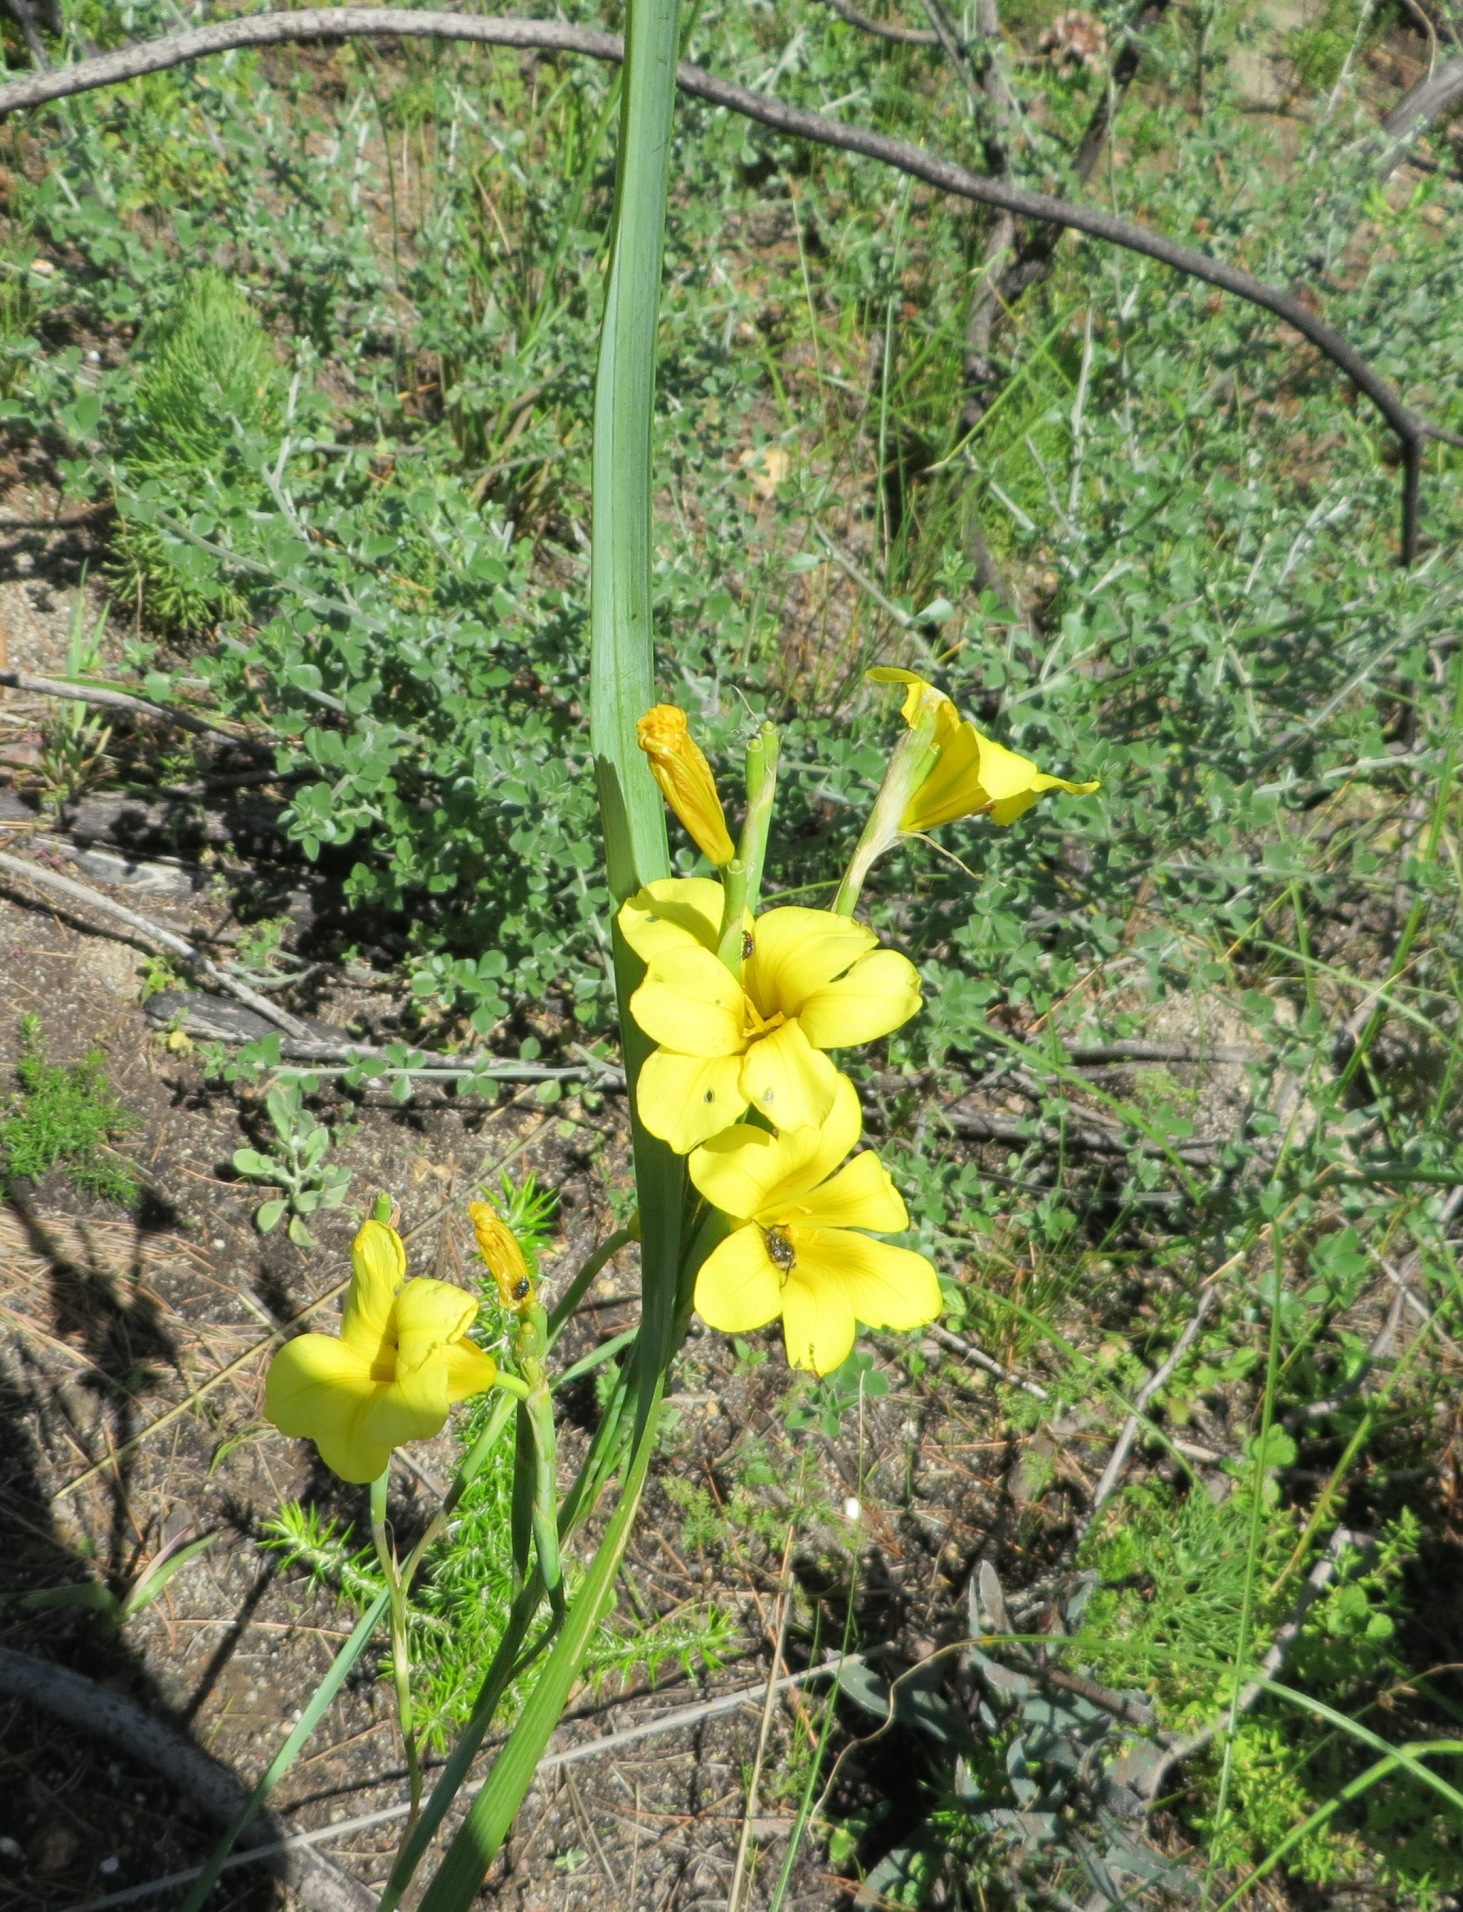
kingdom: Plantae
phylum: Tracheophyta
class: Liliopsida
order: Asparagales
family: Iridaceae
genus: Moraea
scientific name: Moraea ochroleuca
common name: Red tulp
